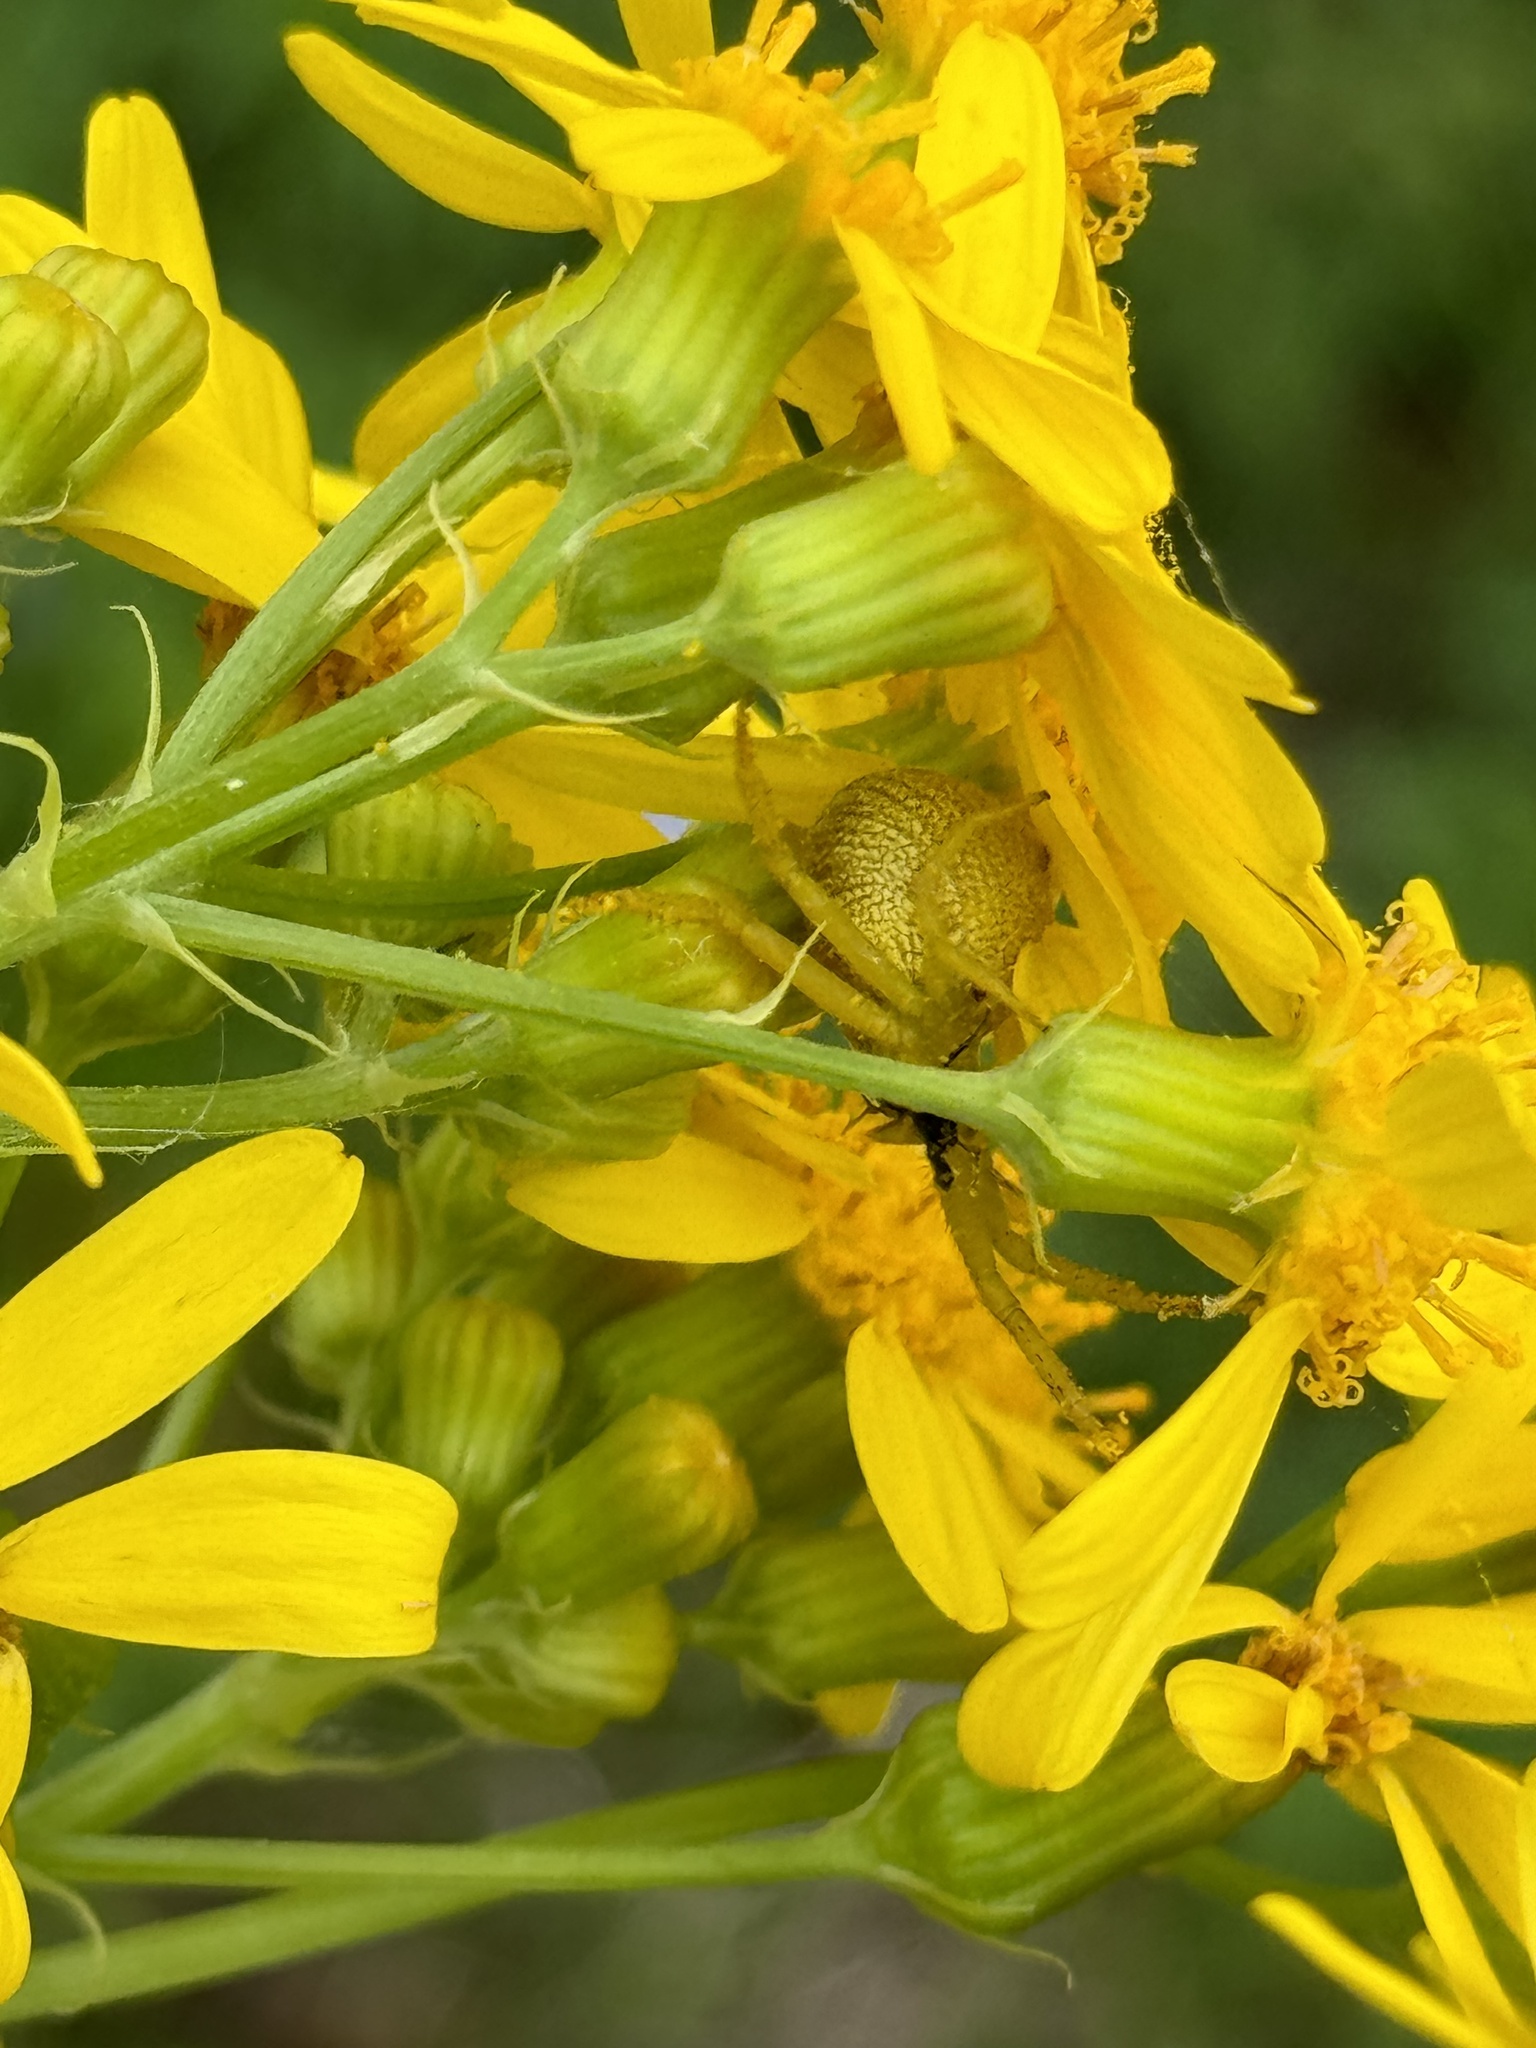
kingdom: Plantae
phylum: Tracheophyta
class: Magnoliopsida
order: Asterales
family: Asteraceae
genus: Senecio
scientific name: Senecio ampullaceus
